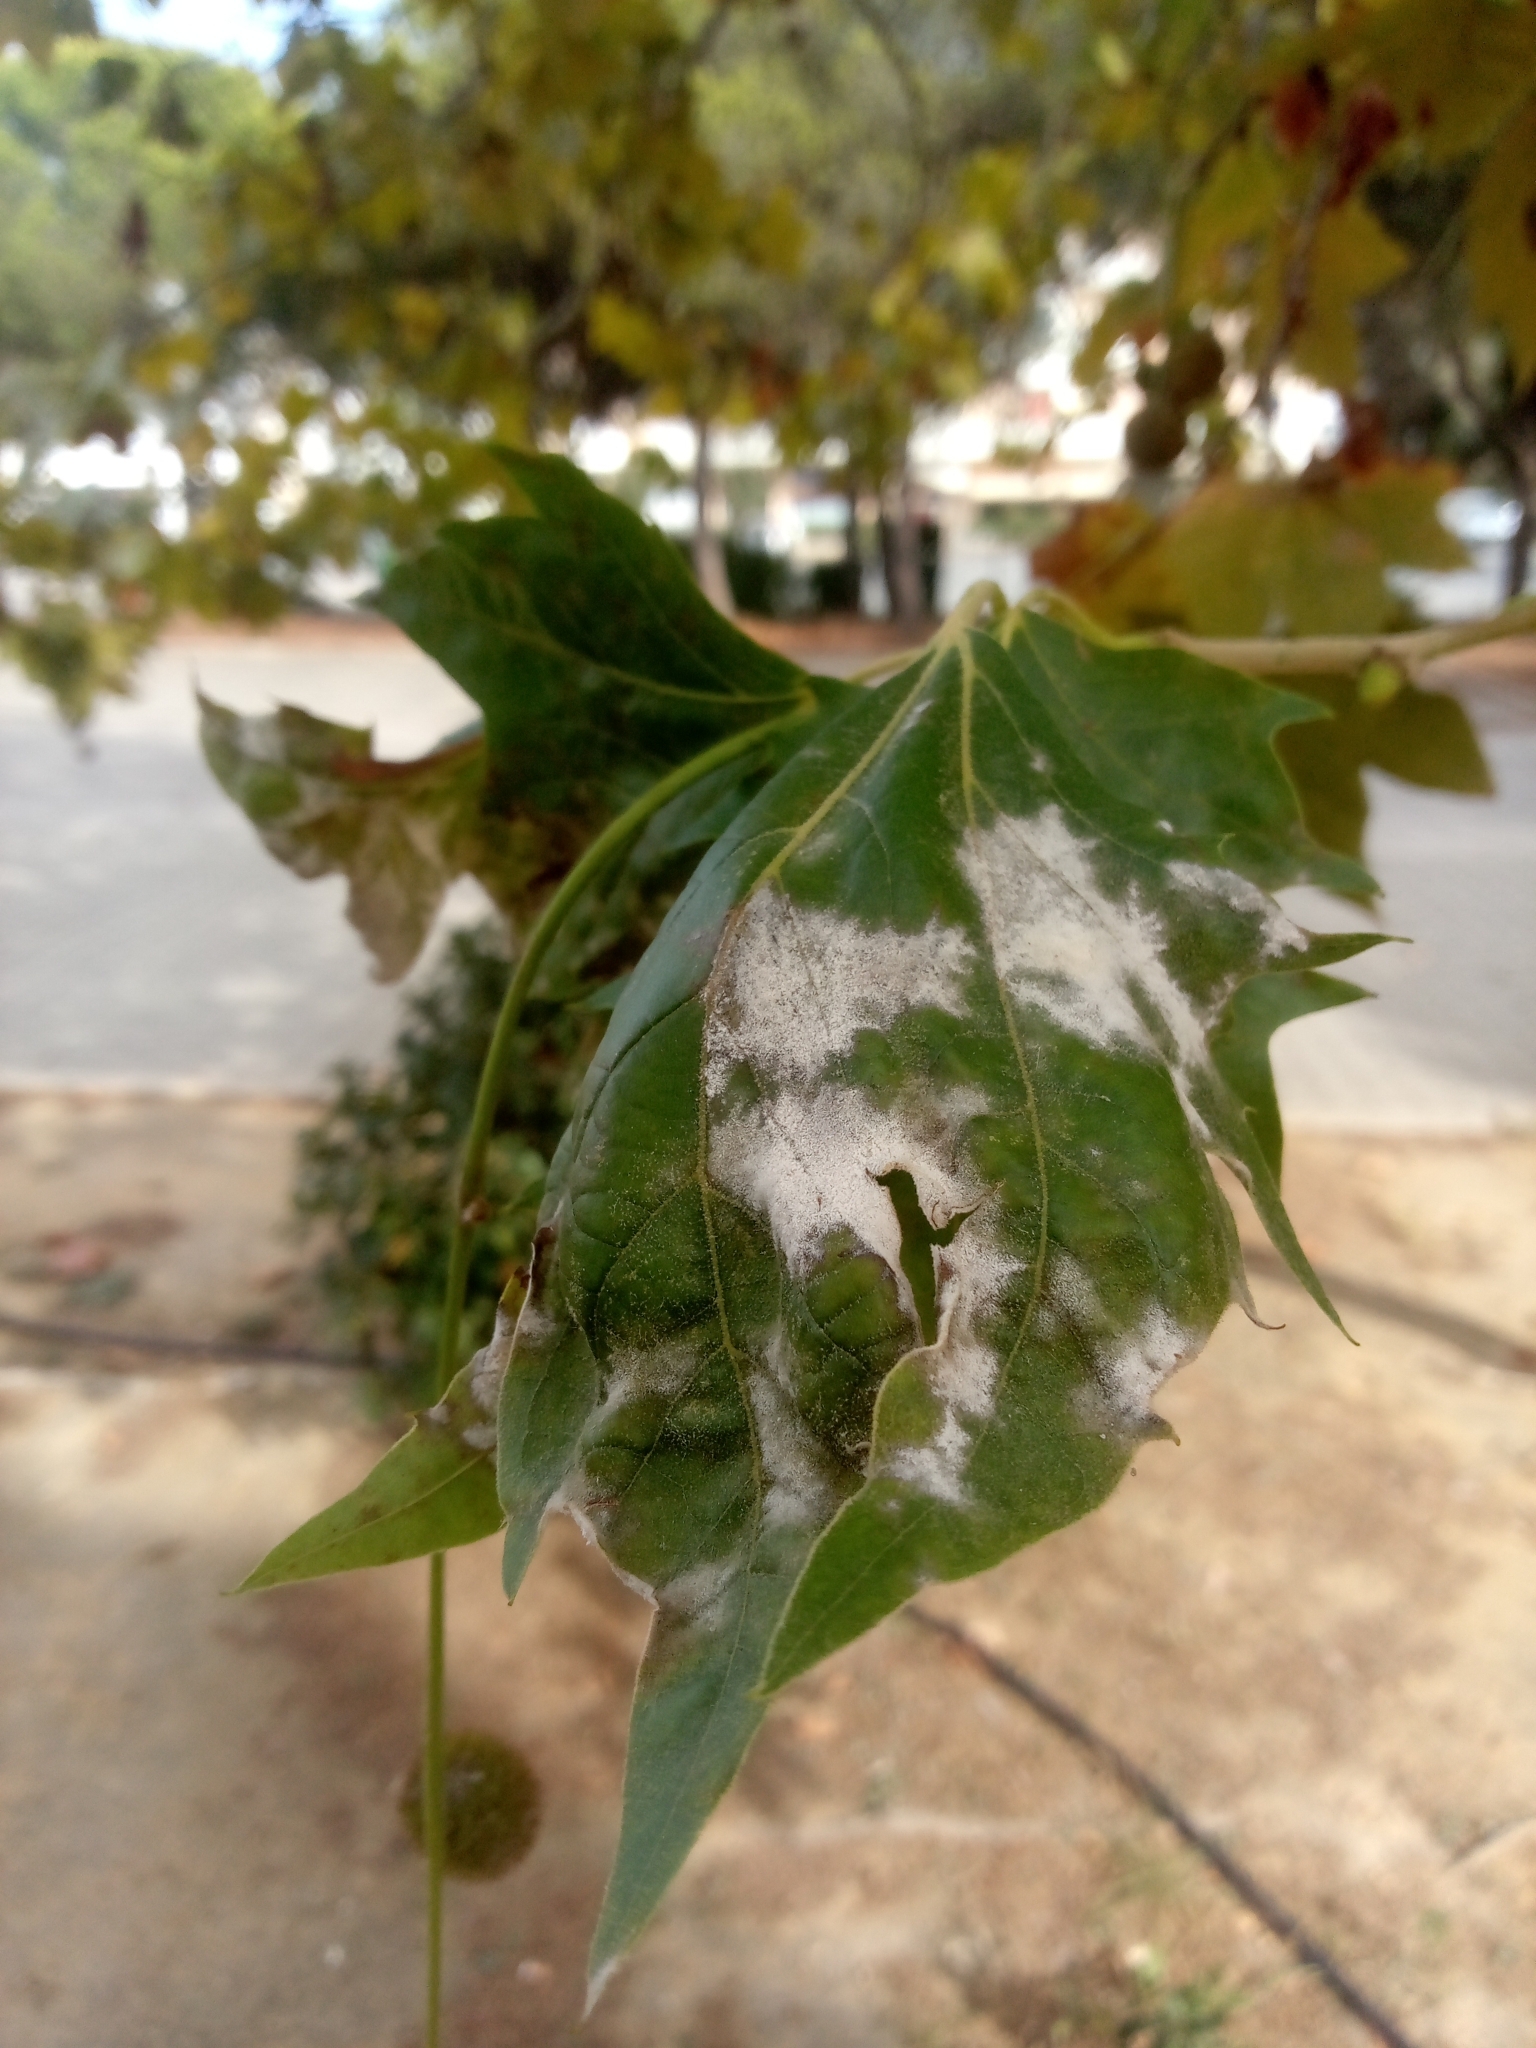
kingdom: Fungi
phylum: Ascomycota
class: Leotiomycetes
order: Helotiales
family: Erysiphaceae
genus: Erysiphe
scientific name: Erysiphe platani
